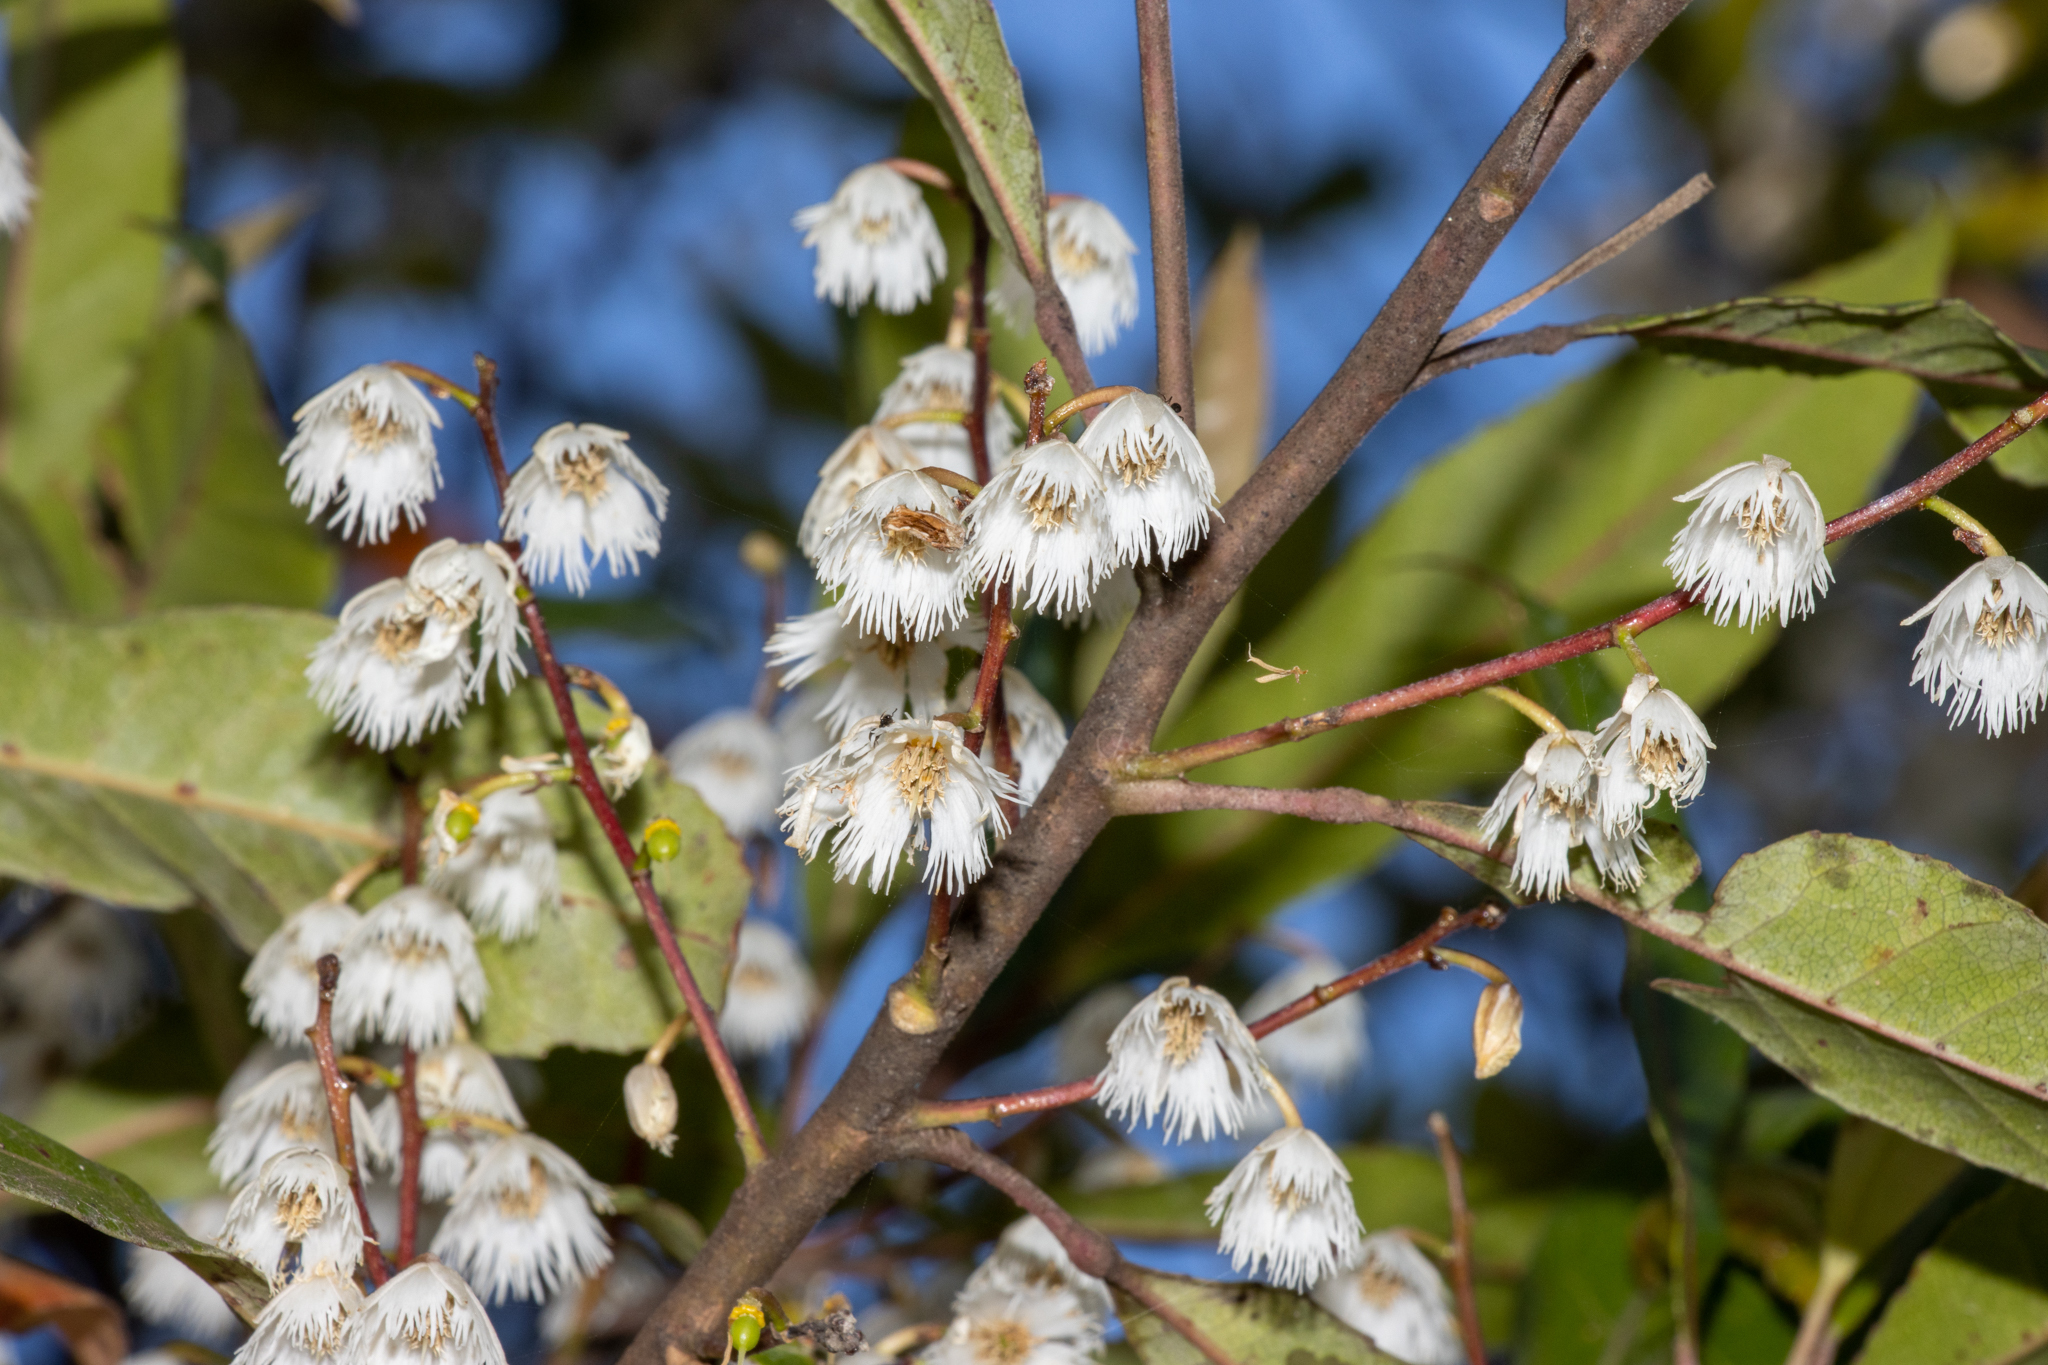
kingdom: Plantae
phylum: Tracheophyta
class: Magnoliopsida
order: Oxalidales
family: Elaeocarpaceae
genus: Elaeocarpus
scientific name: Elaeocarpus reticulatus
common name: Ash quandong
